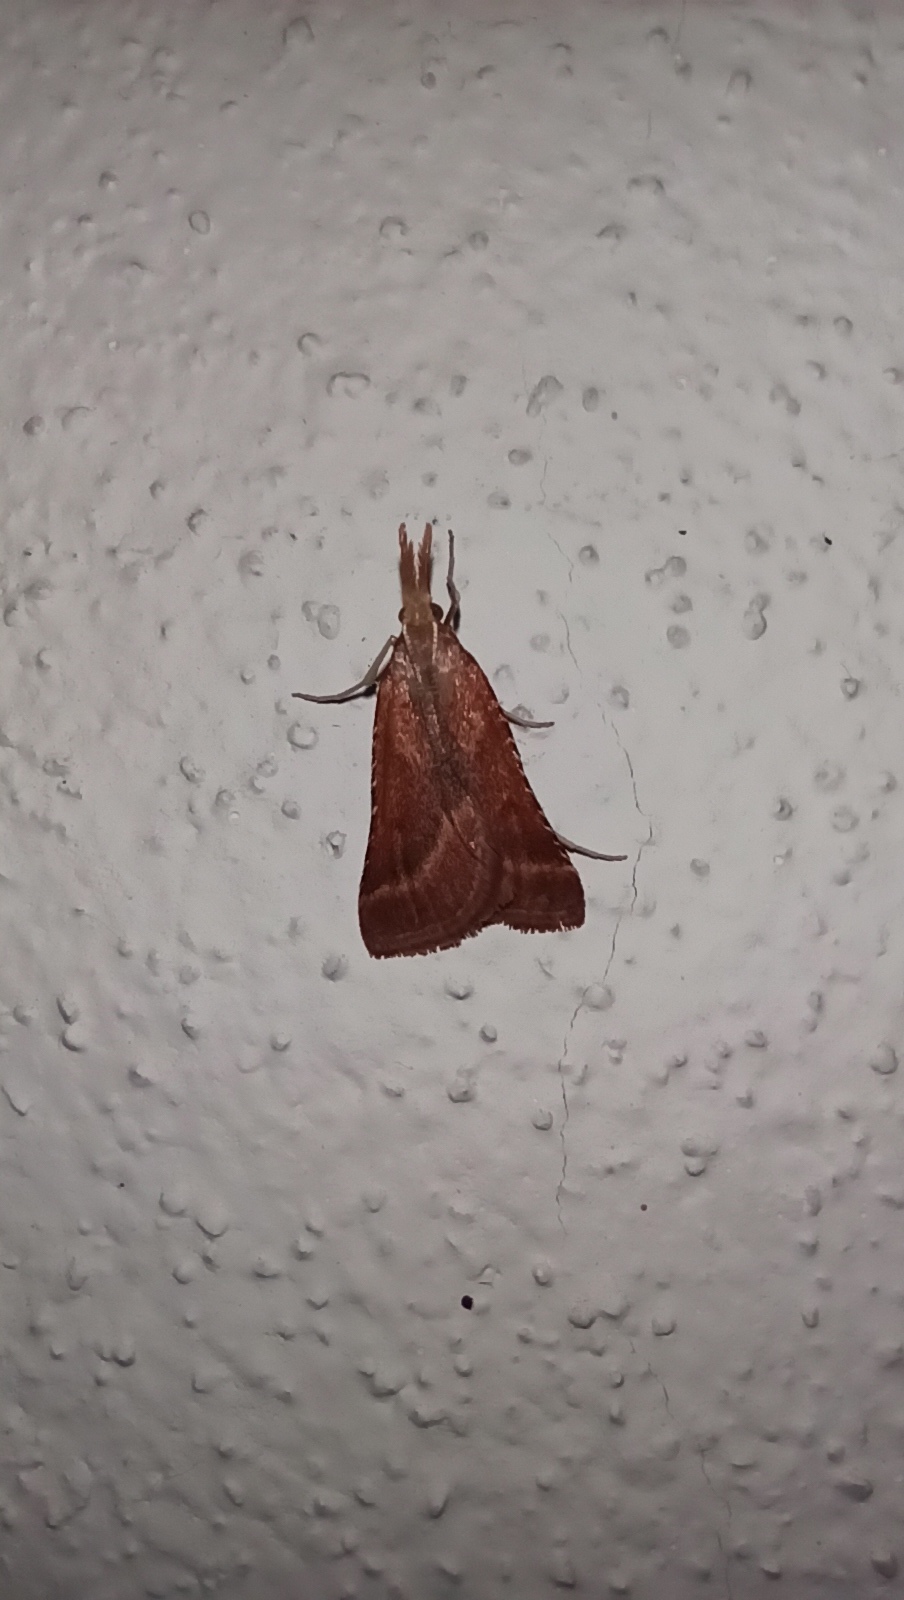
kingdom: Animalia
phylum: Arthropoda
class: Insecta
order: Lepidoptera
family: Pyralidae
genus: Synaphe
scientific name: Synaphe punctalis
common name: Long-legged tabby
